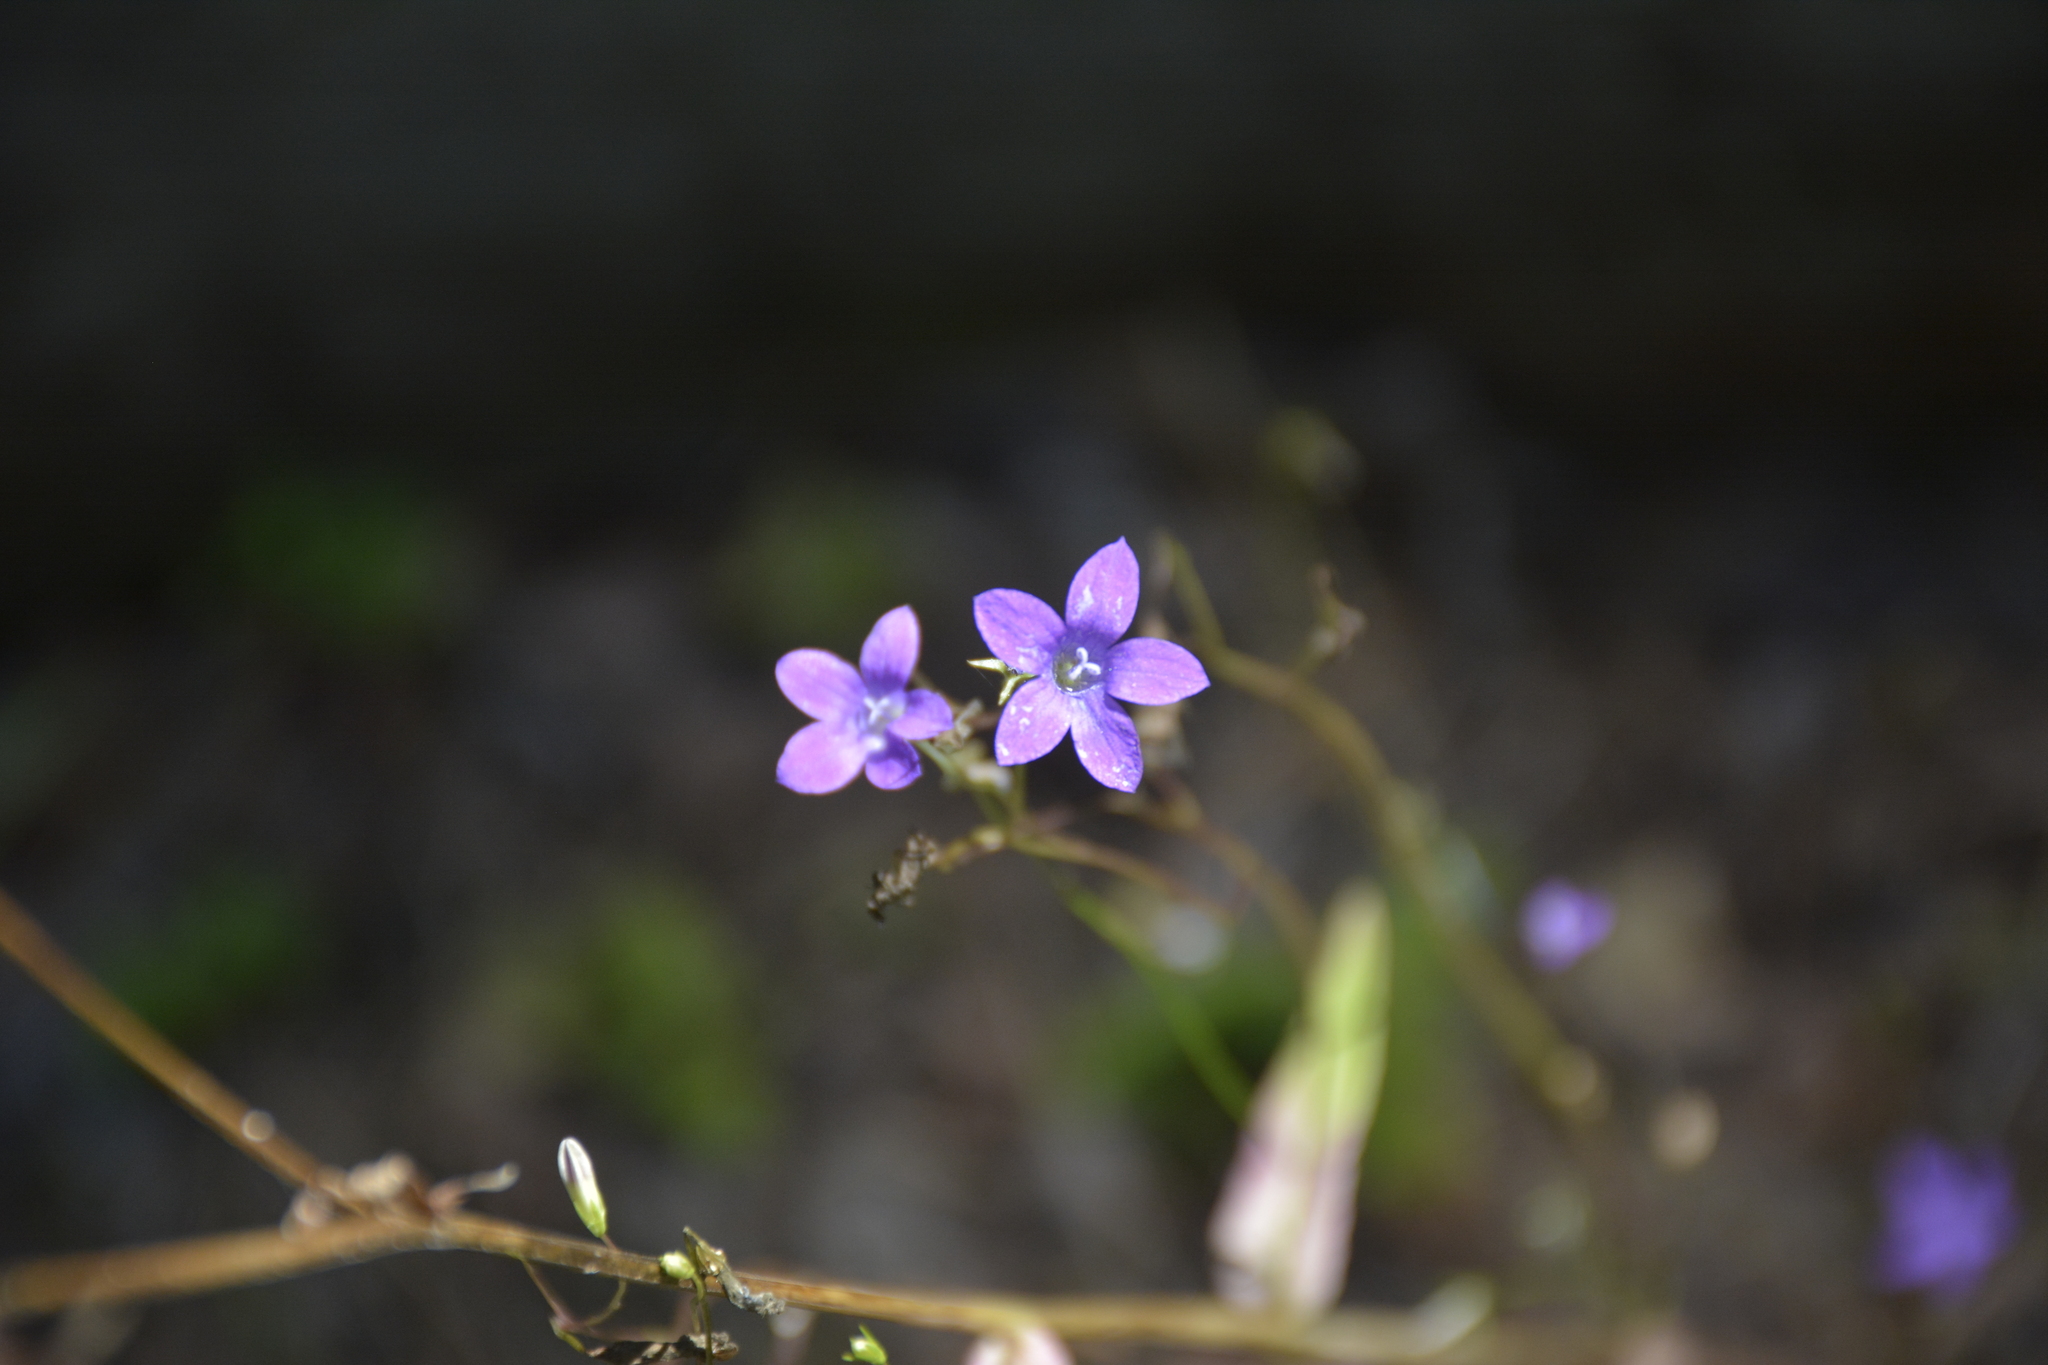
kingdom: Plantae
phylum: Tracheophyta
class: Magnoliopsida
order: Asterales
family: Campanulaceae
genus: Campanula
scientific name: Campanula patula
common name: Spreading bellflower
